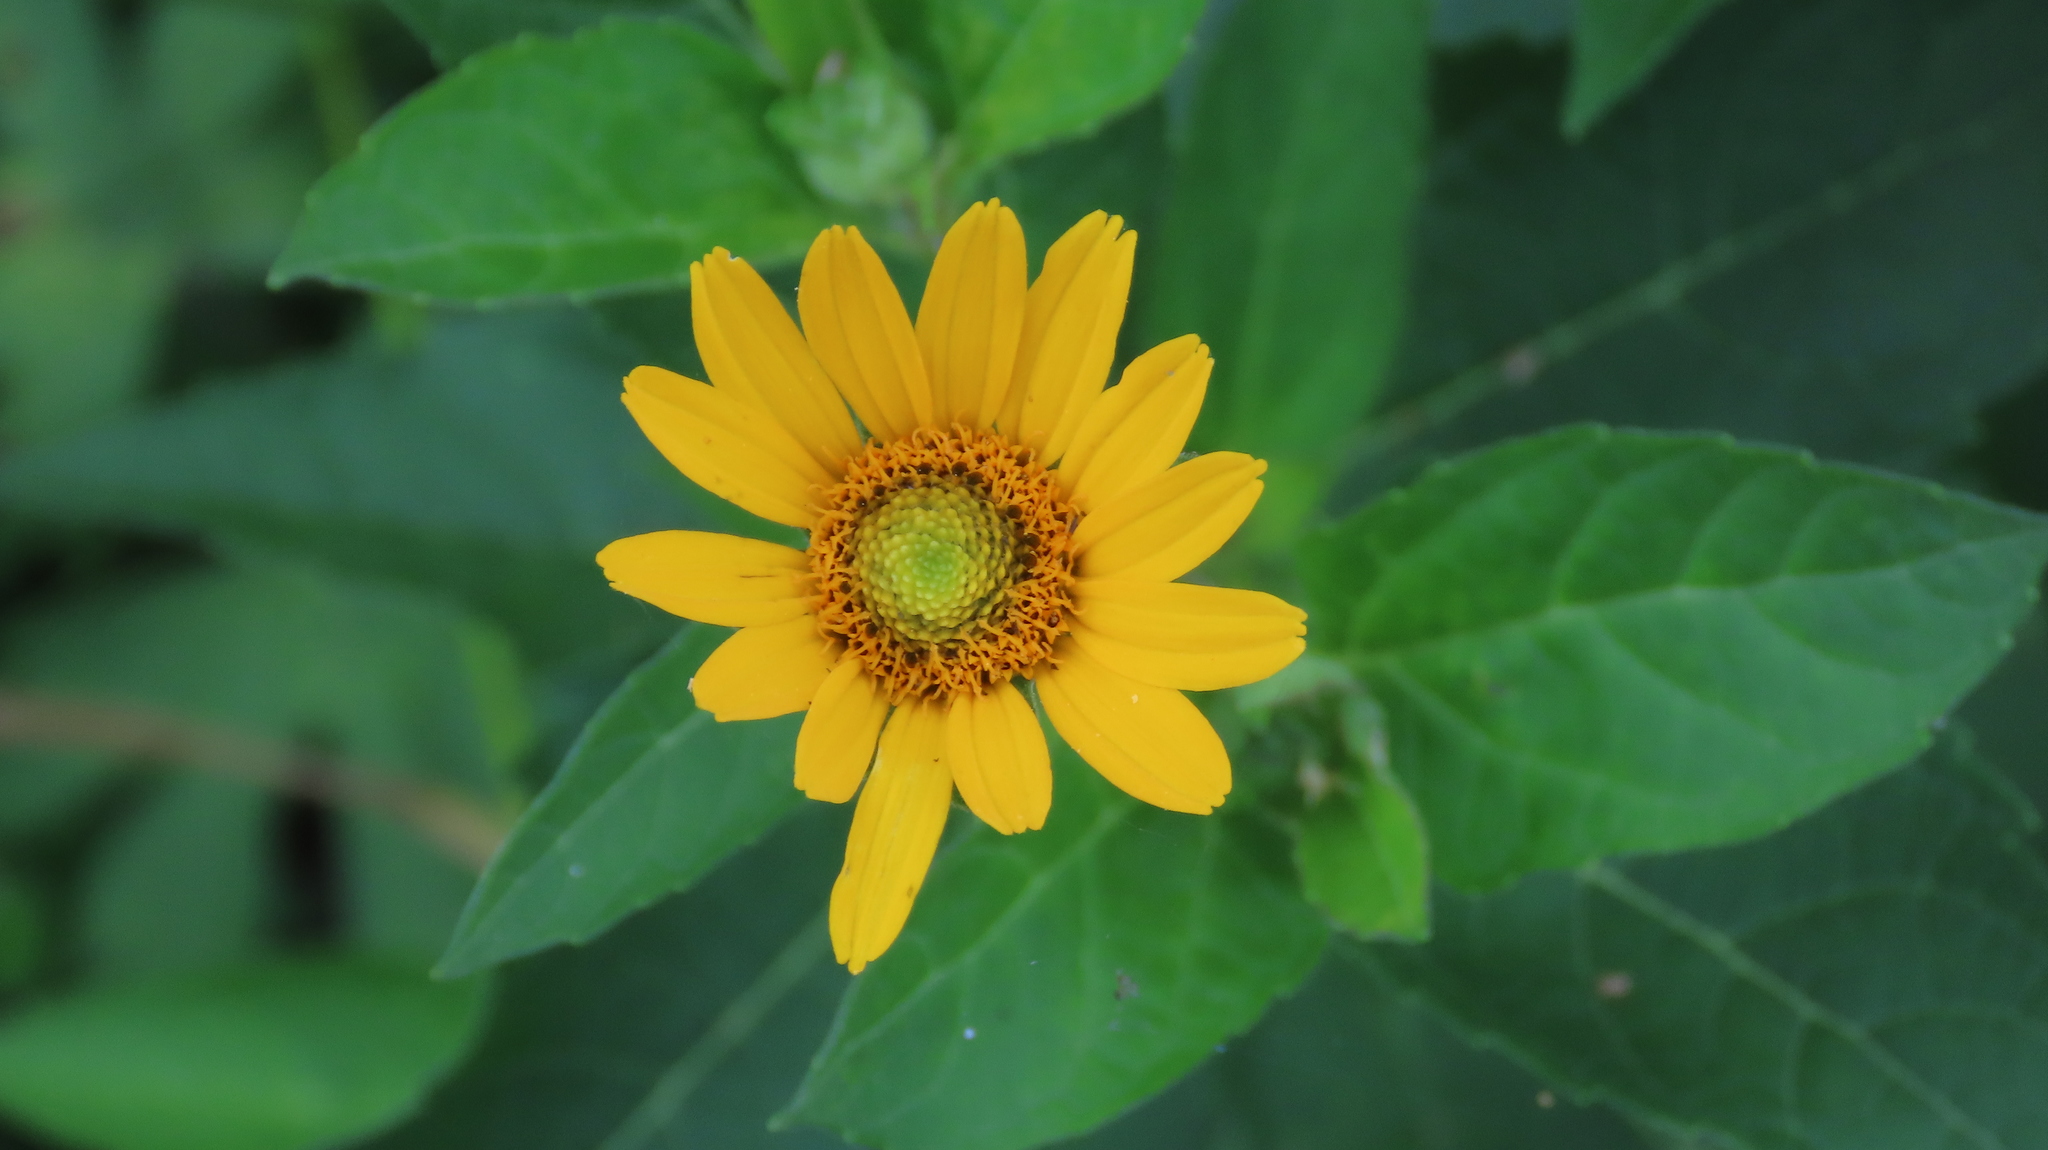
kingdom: Plantae
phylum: Tracheophyta
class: Magnoliopsida
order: Asterales
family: Asteraceae
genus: Heliopsis
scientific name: Heliopsis helianthoides
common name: False sunflower
